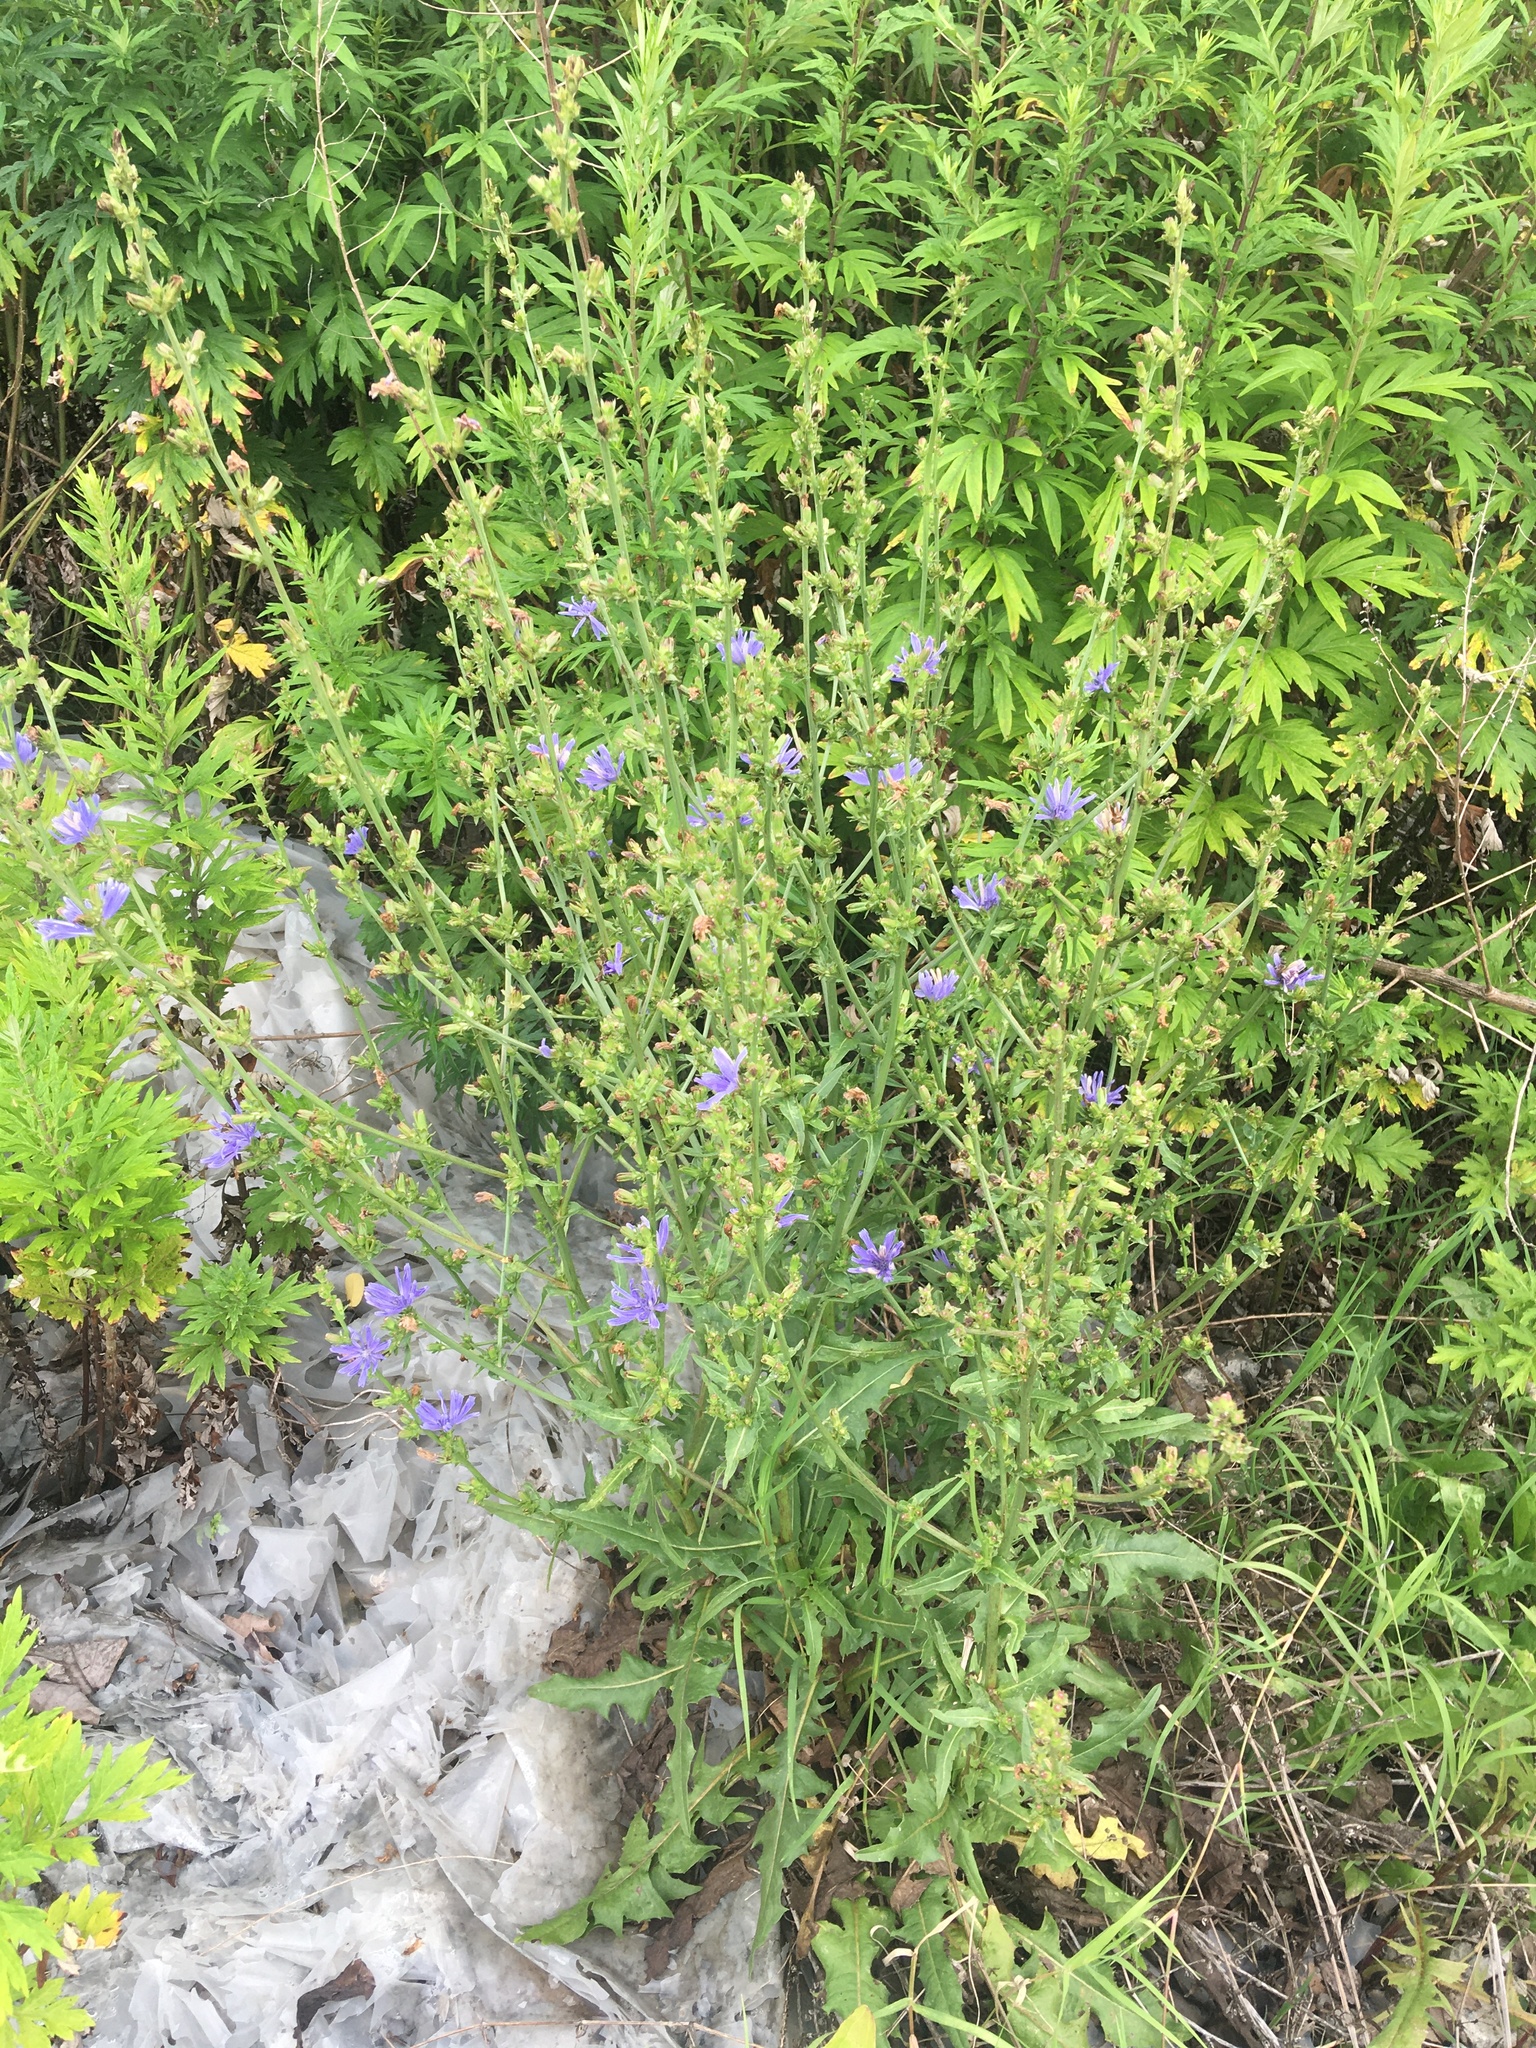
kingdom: Plantae
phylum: Tracheophyta
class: Magnoliopsida
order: Asterales
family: Asteraceae
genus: Cichorium
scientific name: Cichorium intybus
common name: Chicory
